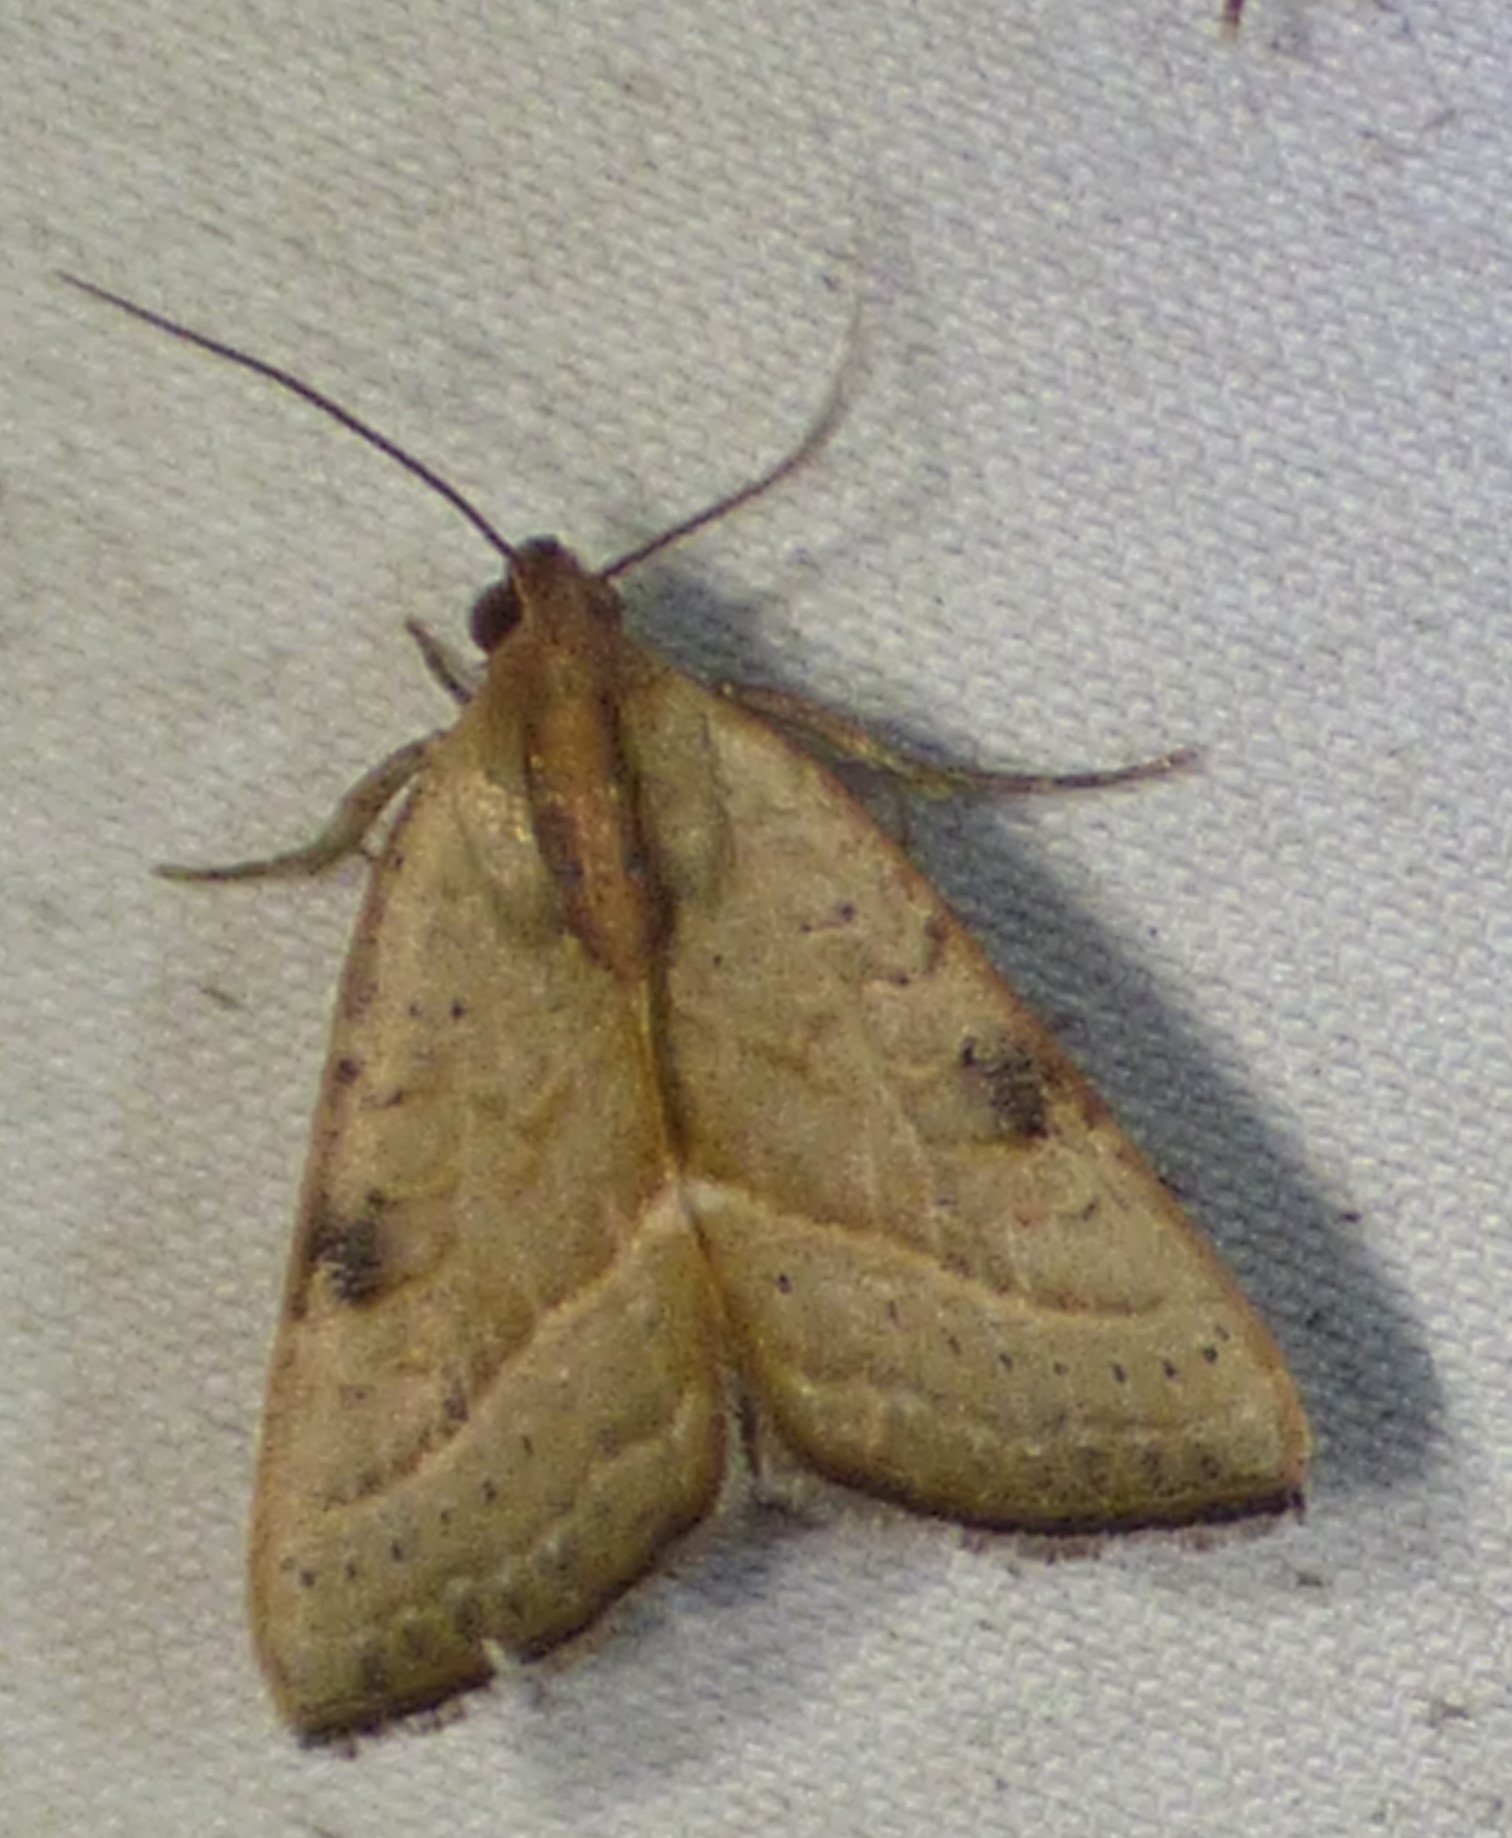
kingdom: Animalia
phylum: Arthropoda
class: Insecta
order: Lepidoptera
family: Noctuidae
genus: Galgula
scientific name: Galgula partita
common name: Wedgeling
